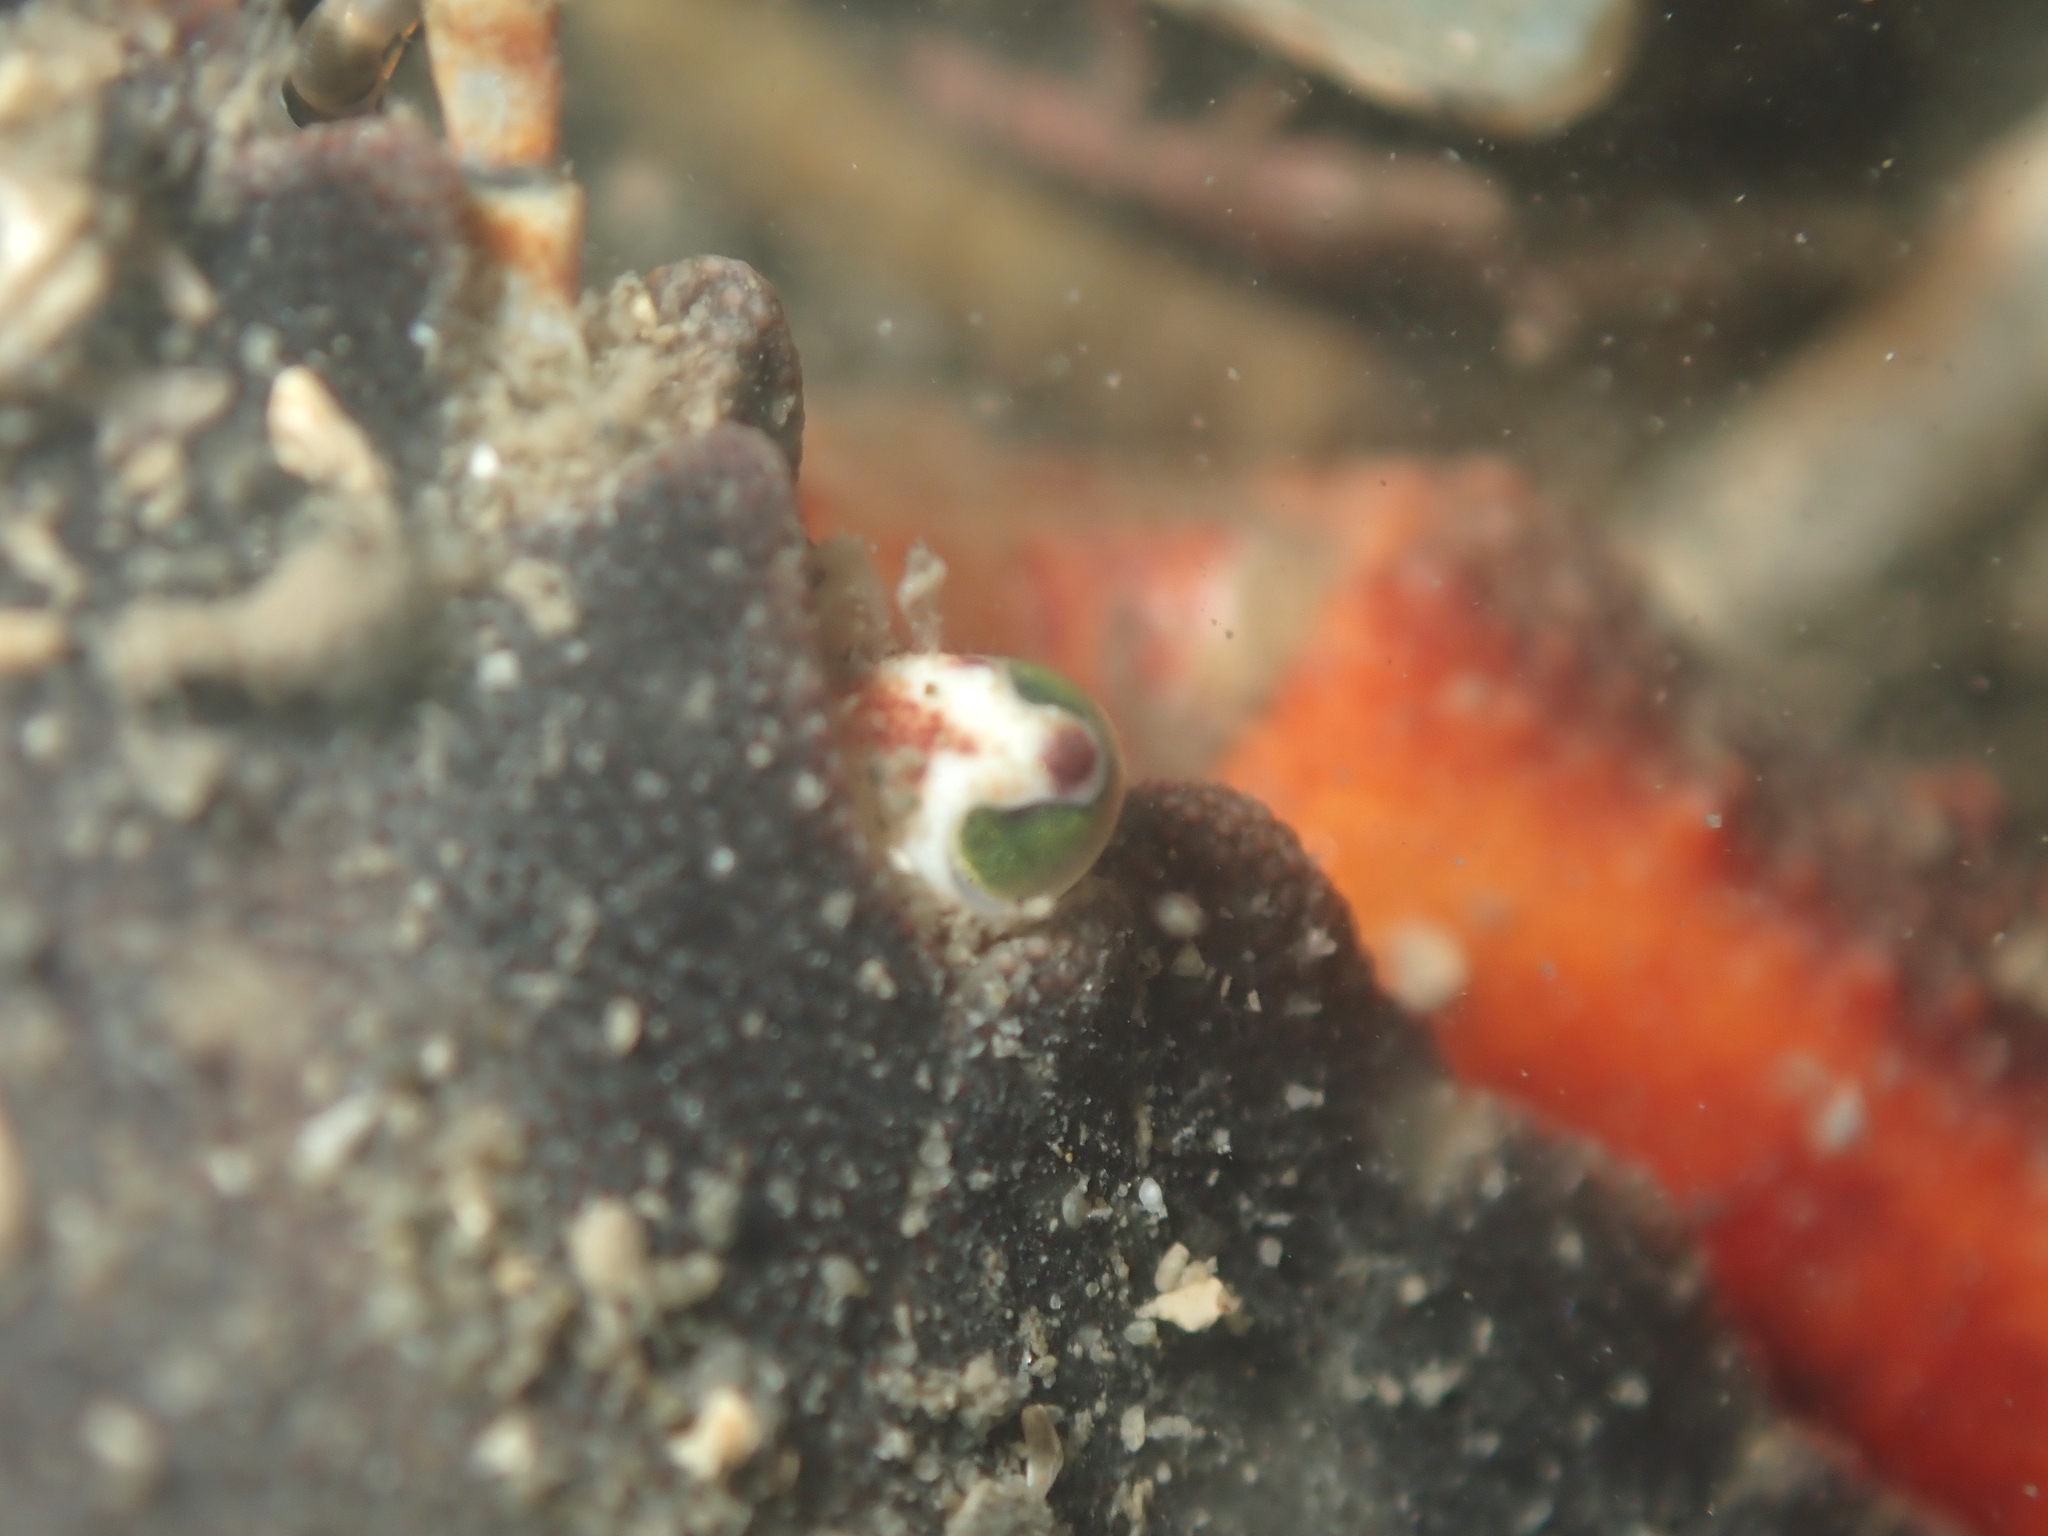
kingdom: Animalia
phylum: Arthropoda
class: Malacostraca
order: Decapoda
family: Cancridae
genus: Metacarcinus
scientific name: Metacarcinus novaezelandiae
